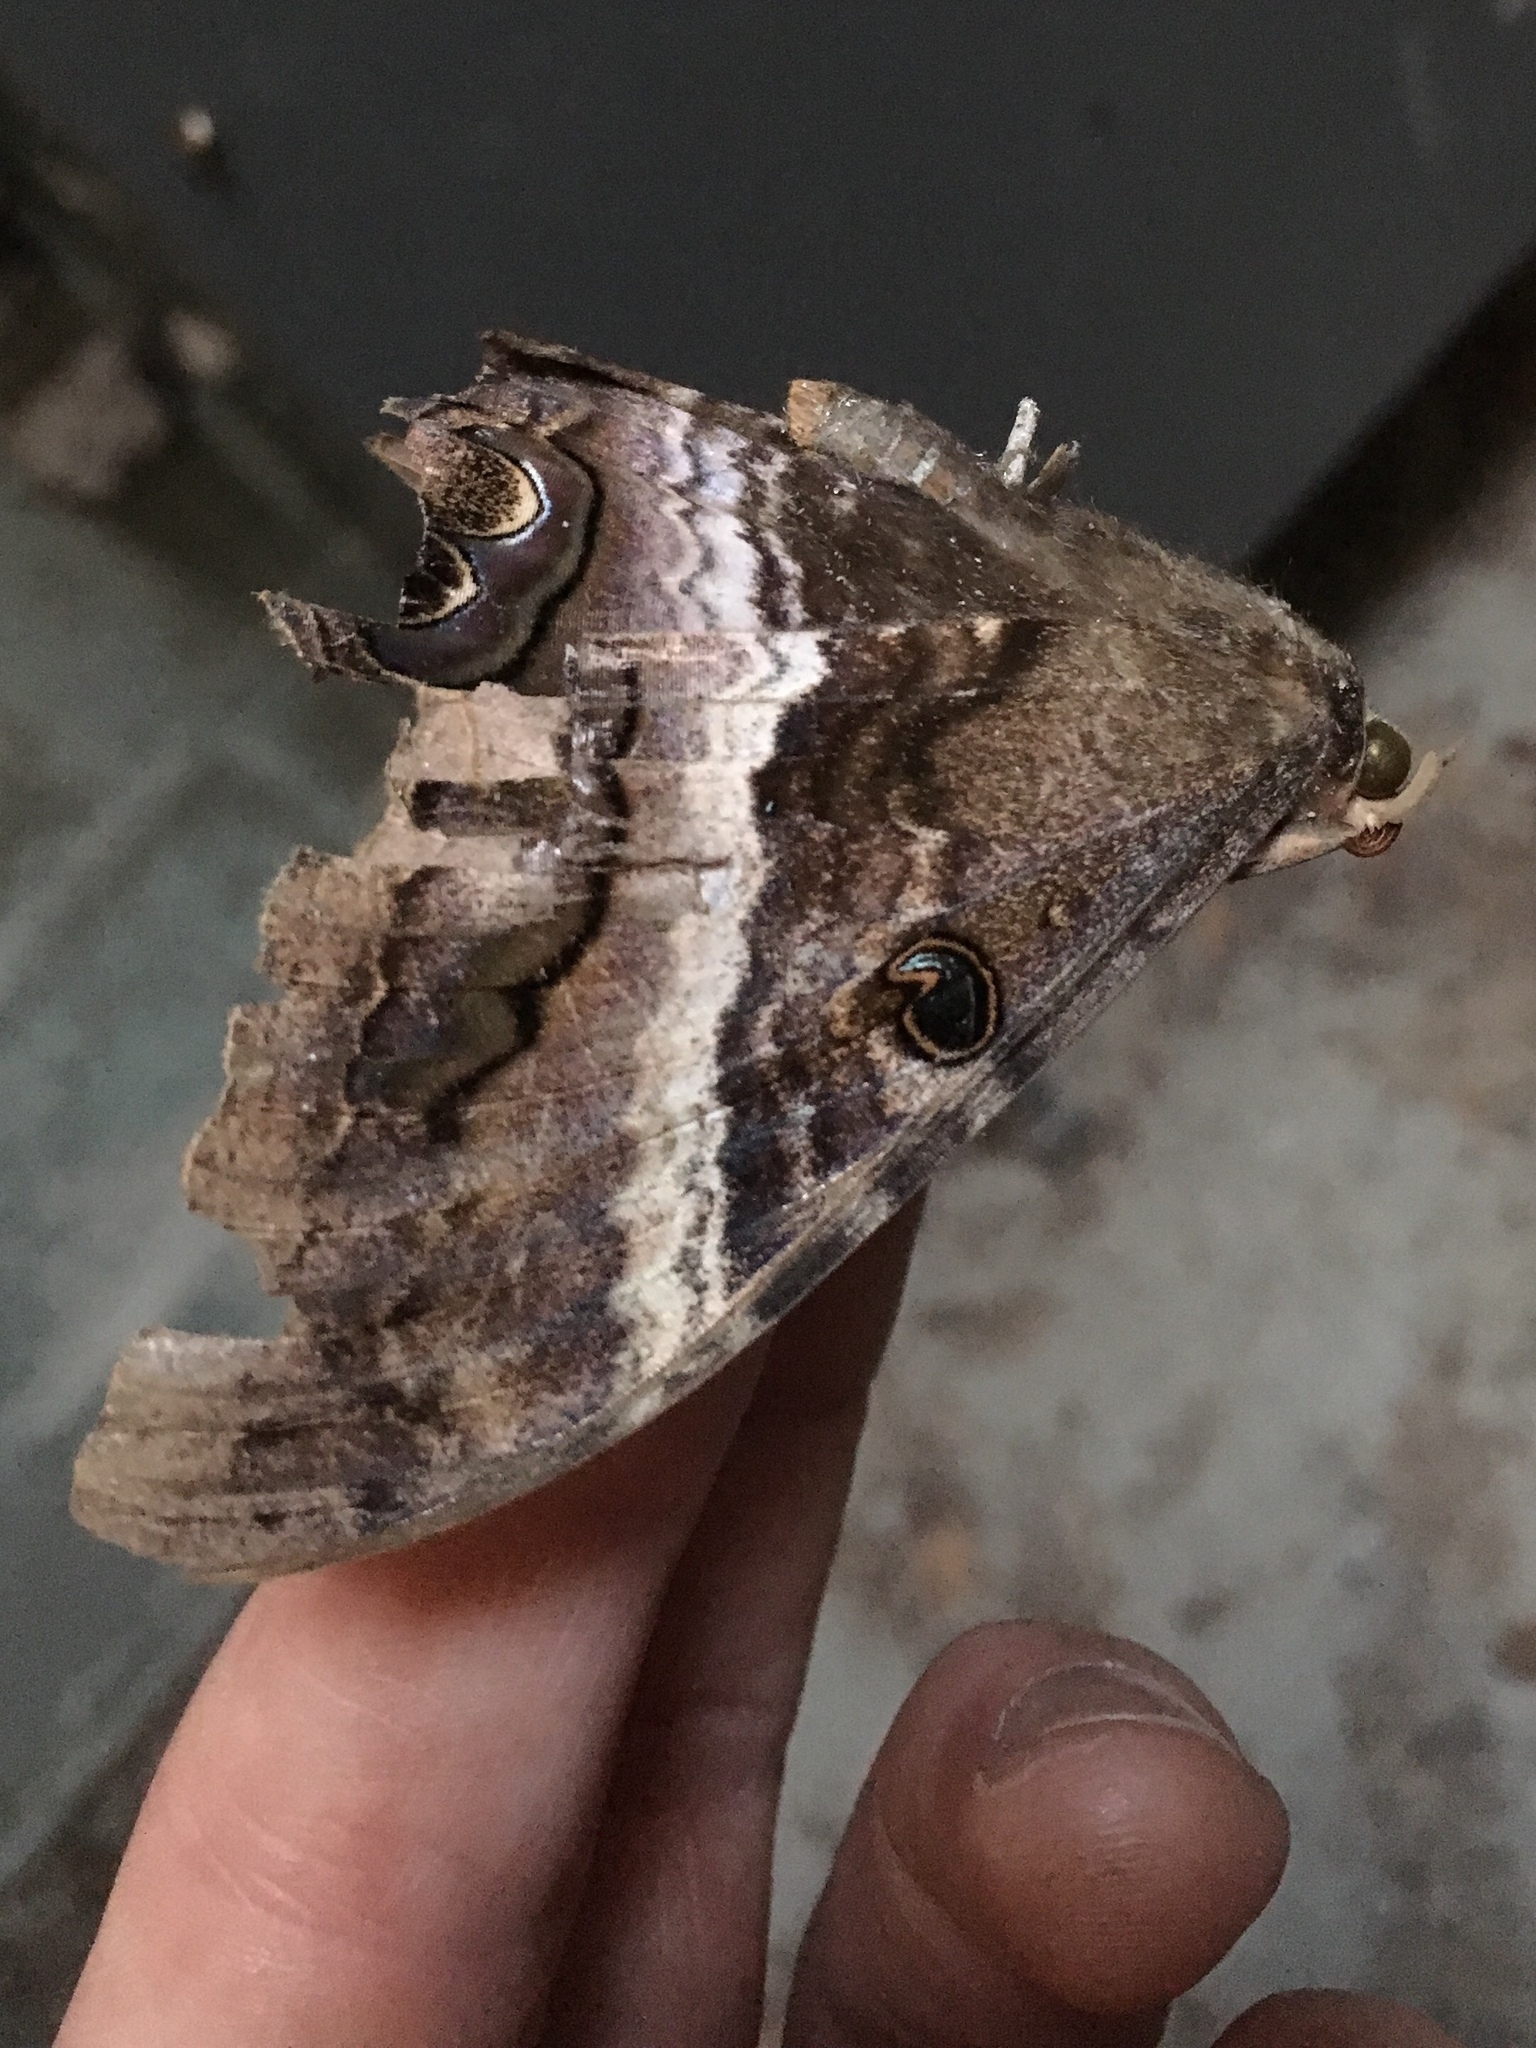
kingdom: Animalia
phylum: Arthropoda
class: Insecta
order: Lepidoptera
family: Erebidae
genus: Ascalapha
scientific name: Ascalapha odorata
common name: Black witch
